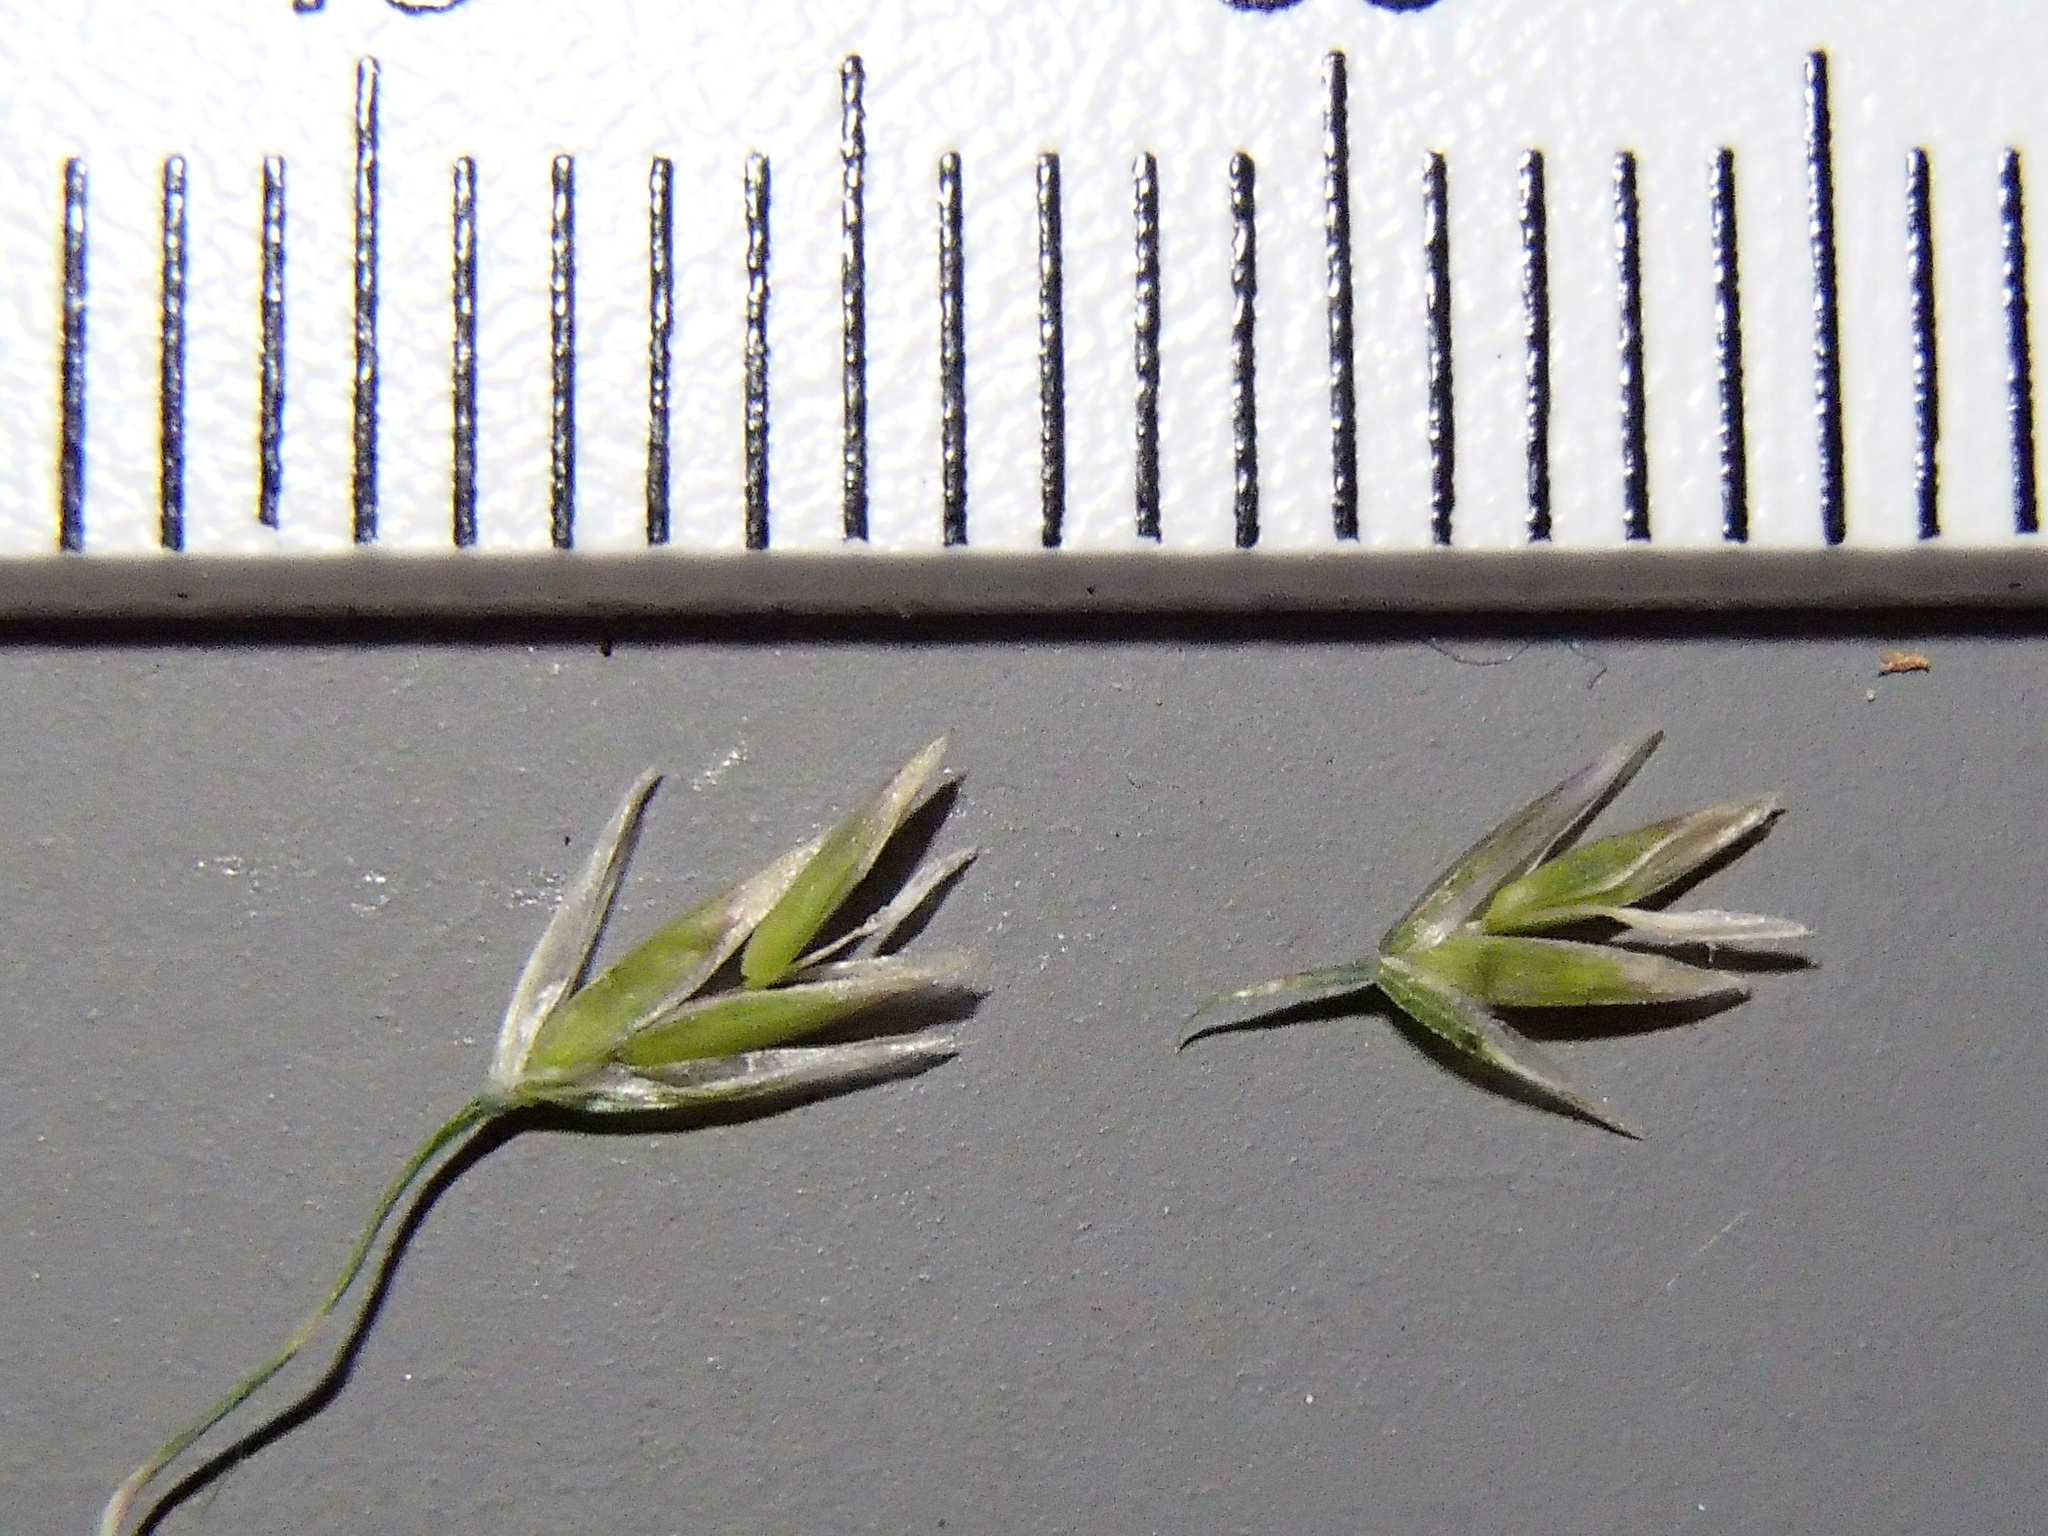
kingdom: Plantae
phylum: Tracheophyta
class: Liliopsida
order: Poales
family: Poaceae
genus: Poa
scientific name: Poa secunda
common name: Sandberg bluegrass
